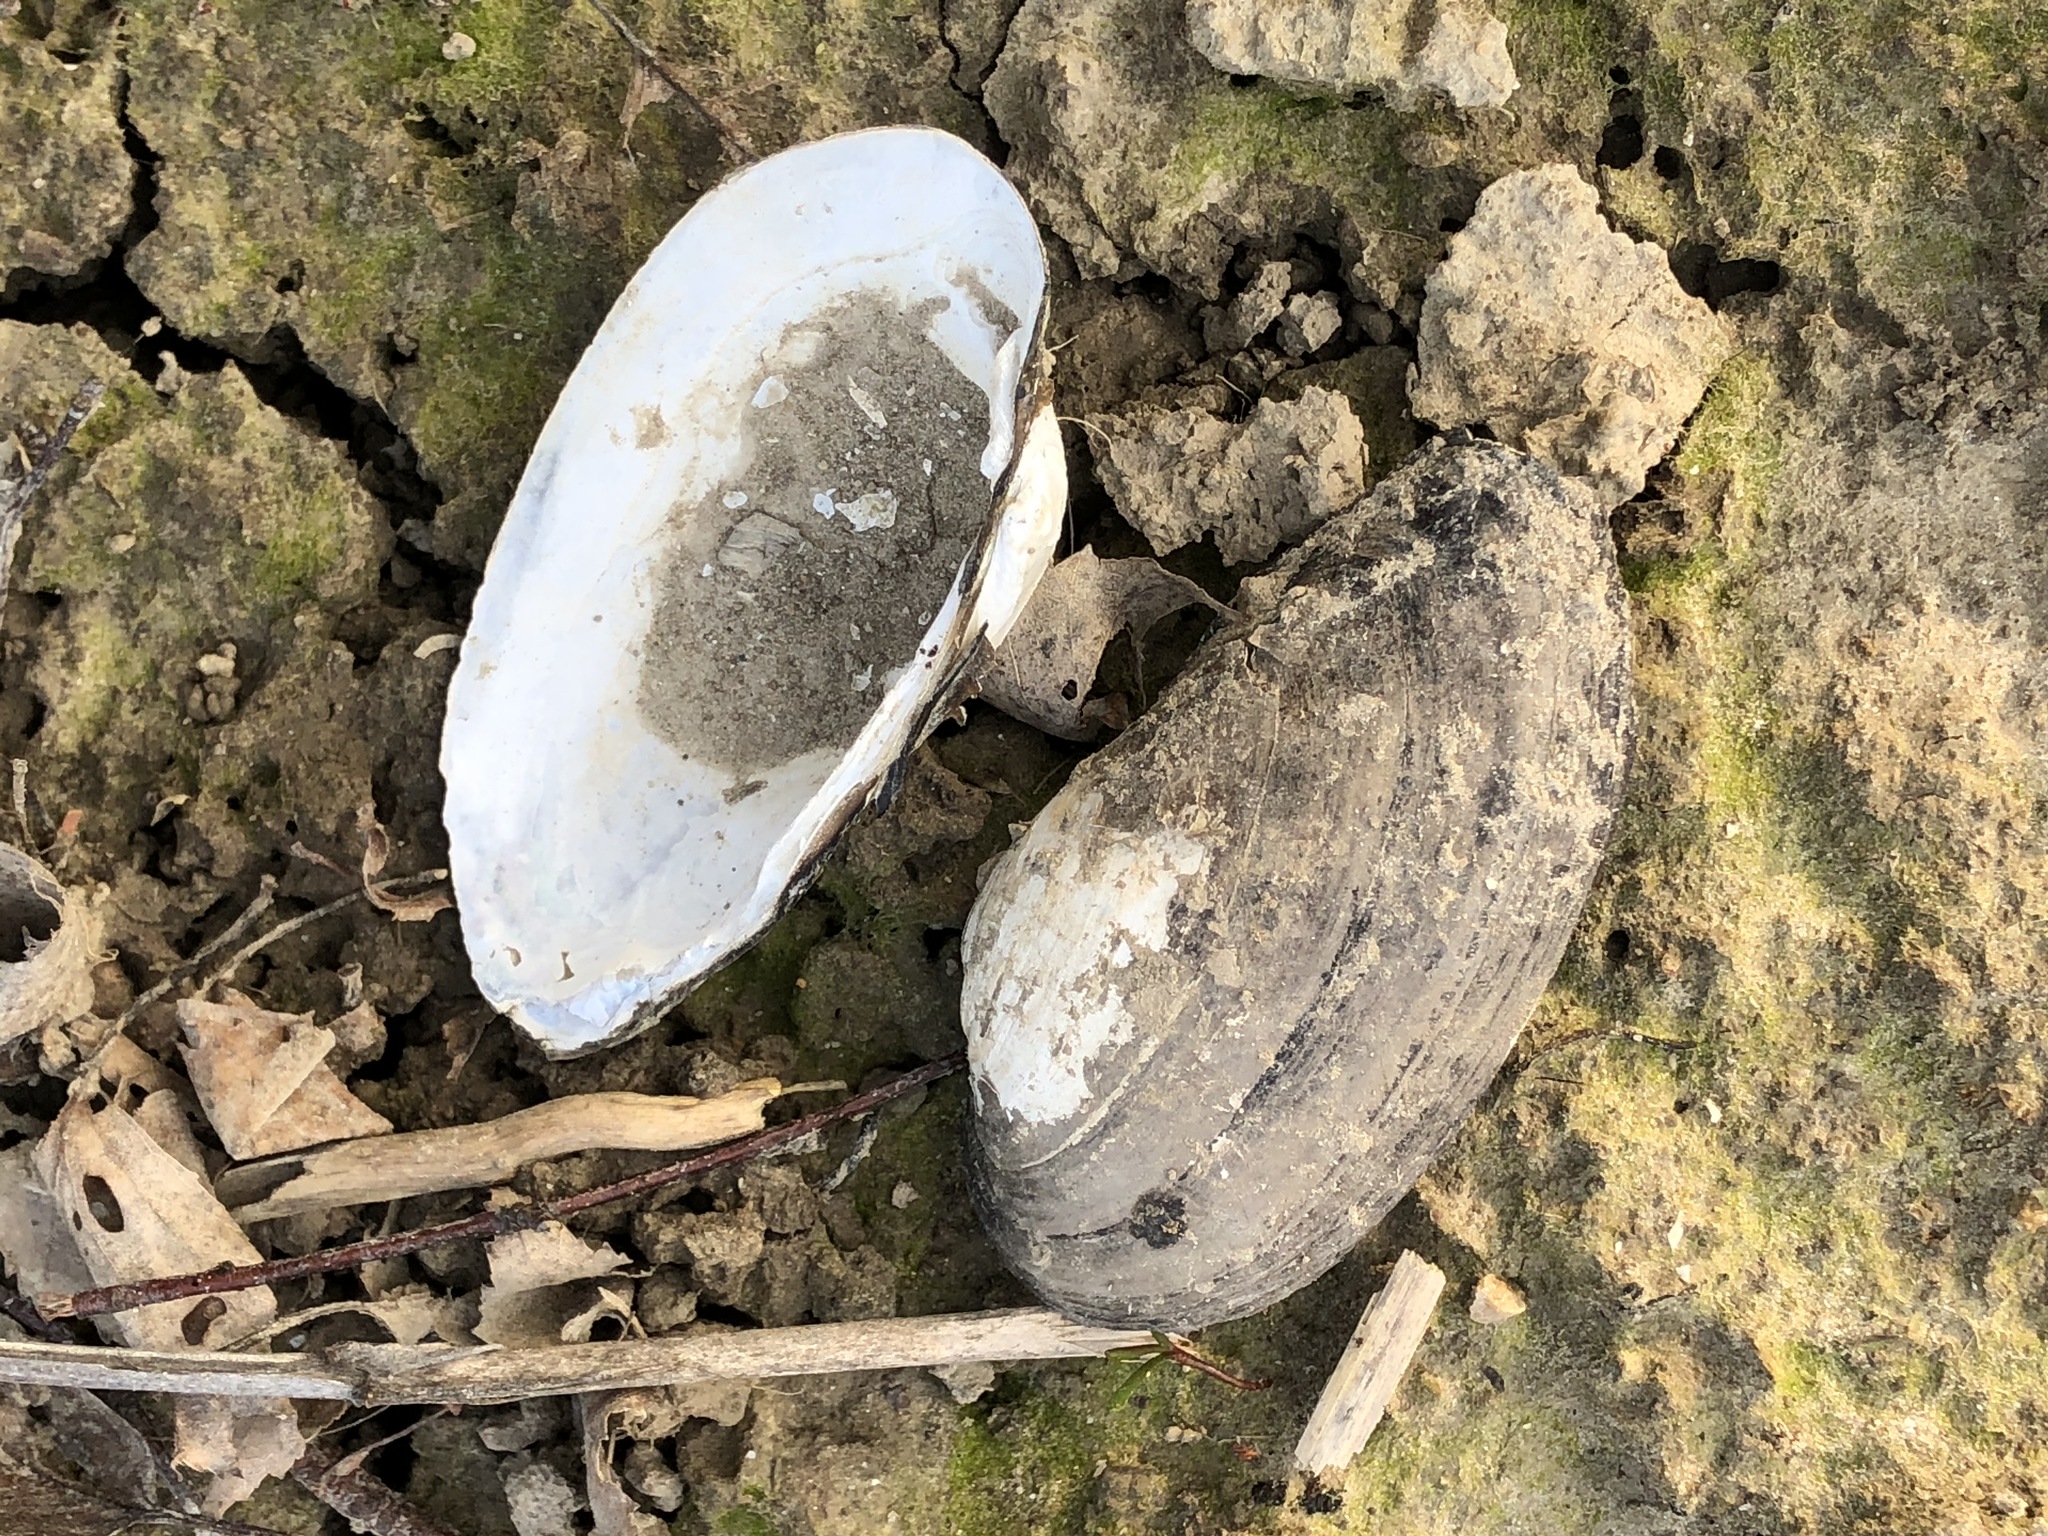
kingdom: Animalia
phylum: Mollusca
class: Bivalvia
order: Unionida
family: Unionidae
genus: Unio
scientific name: Unio tumidus
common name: Swollen river mussel
